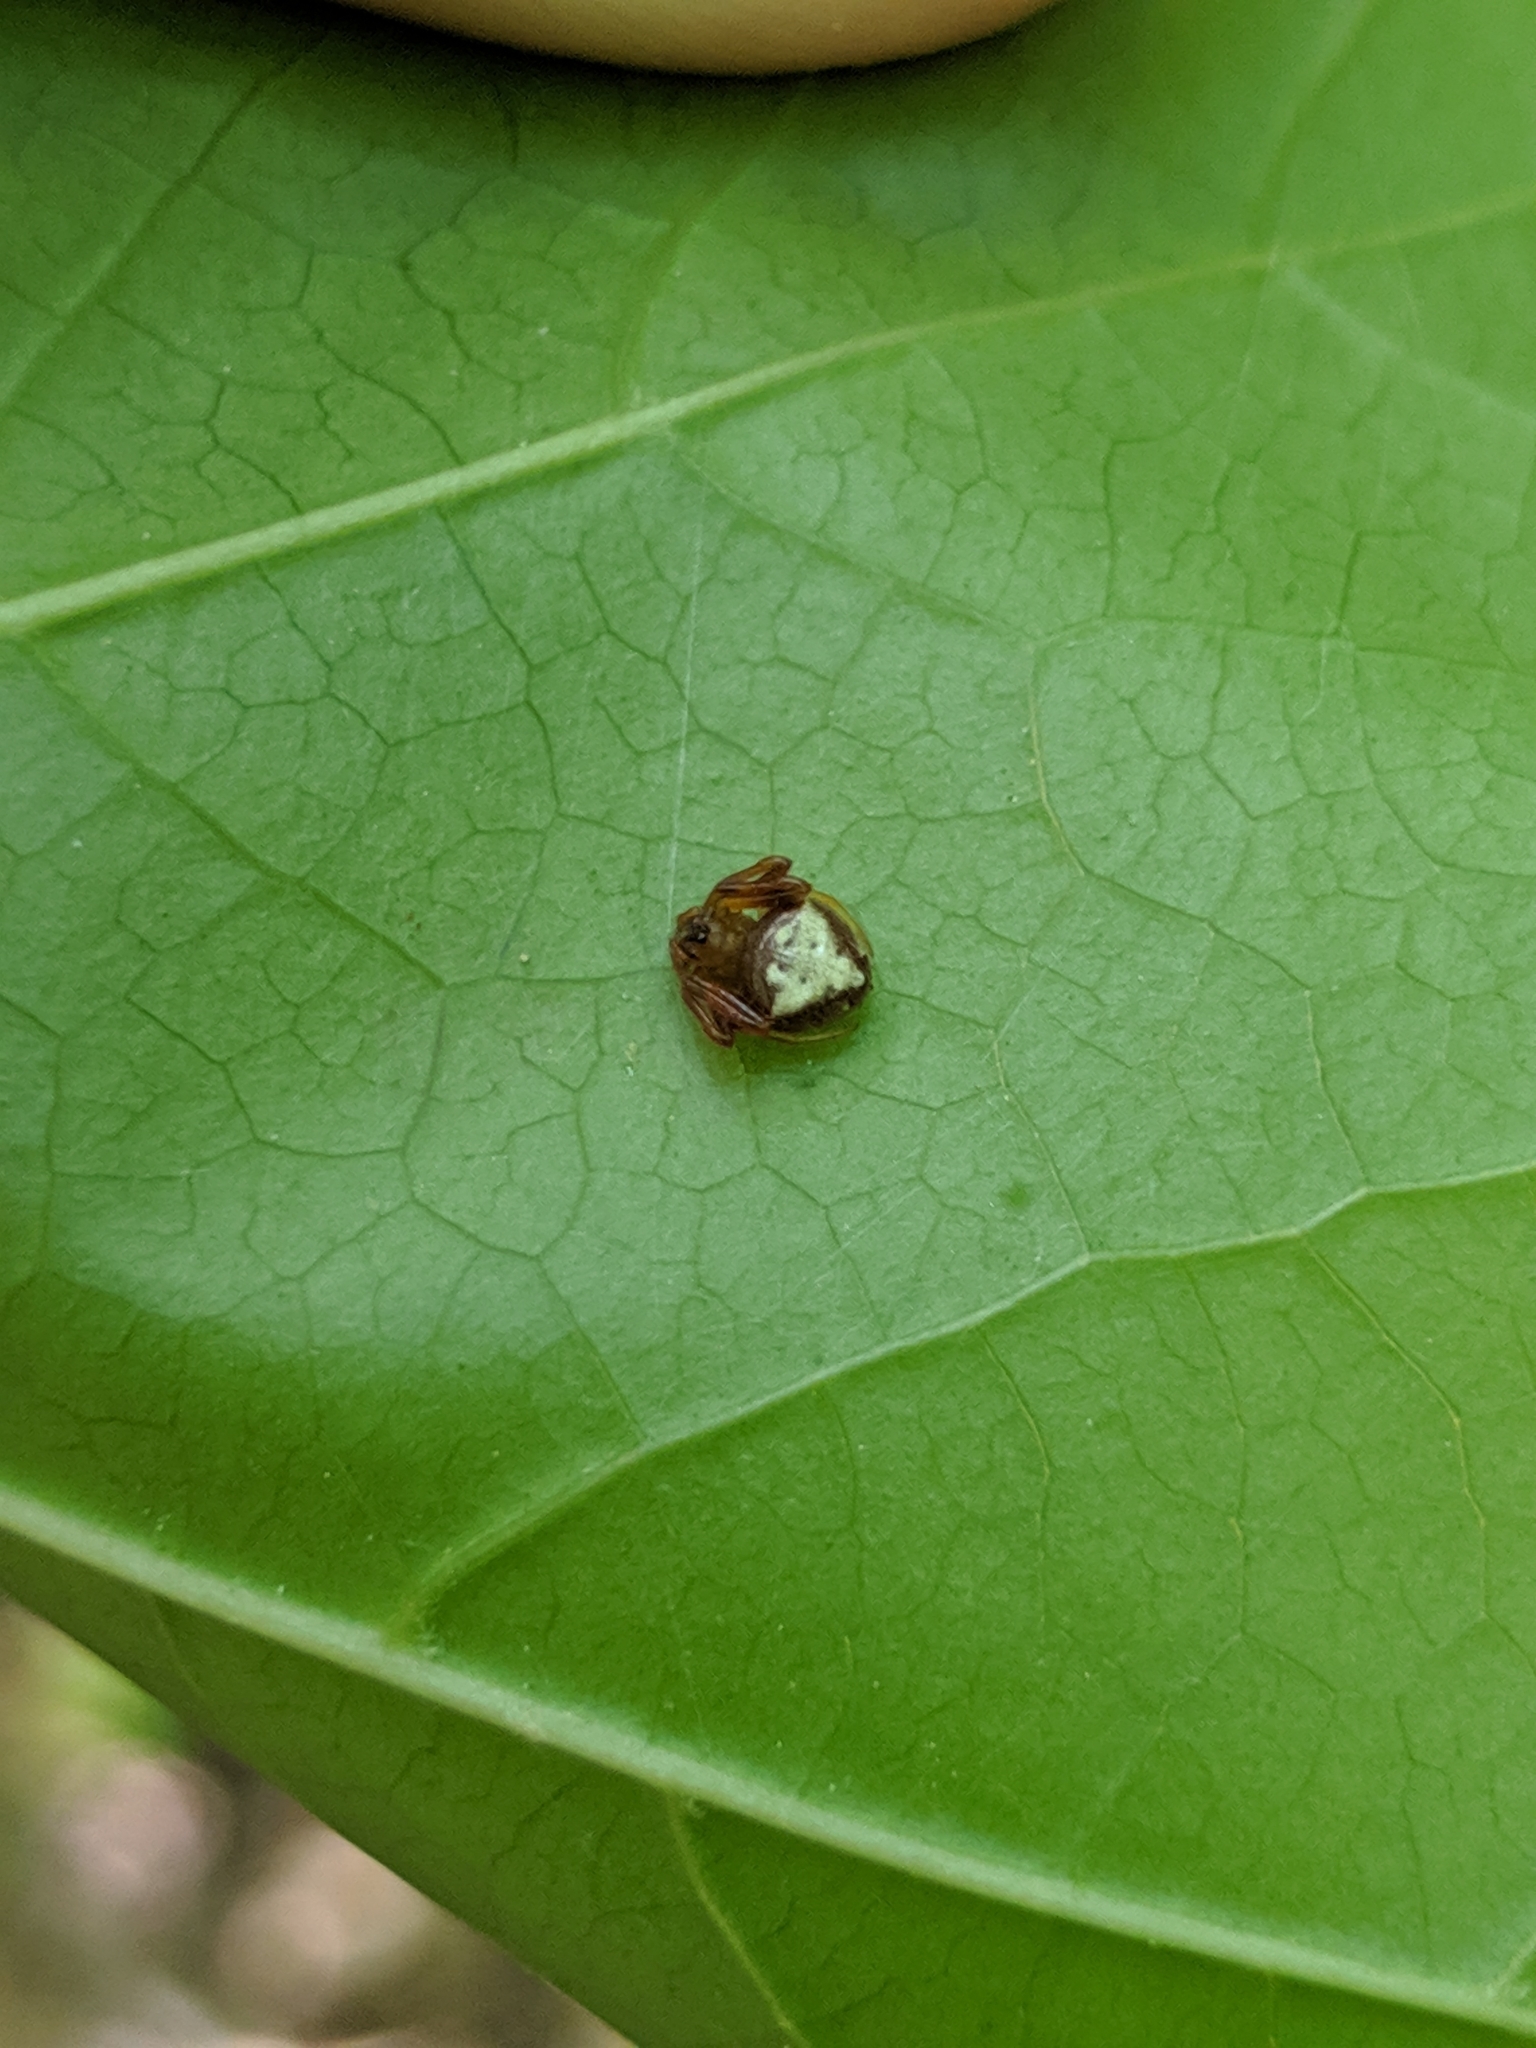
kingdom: Animalia
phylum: Arthropoda
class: Arachnida
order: Araneae
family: Araneidae
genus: Verrucosa
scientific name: Verrucosa arenata
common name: Orb weavers
